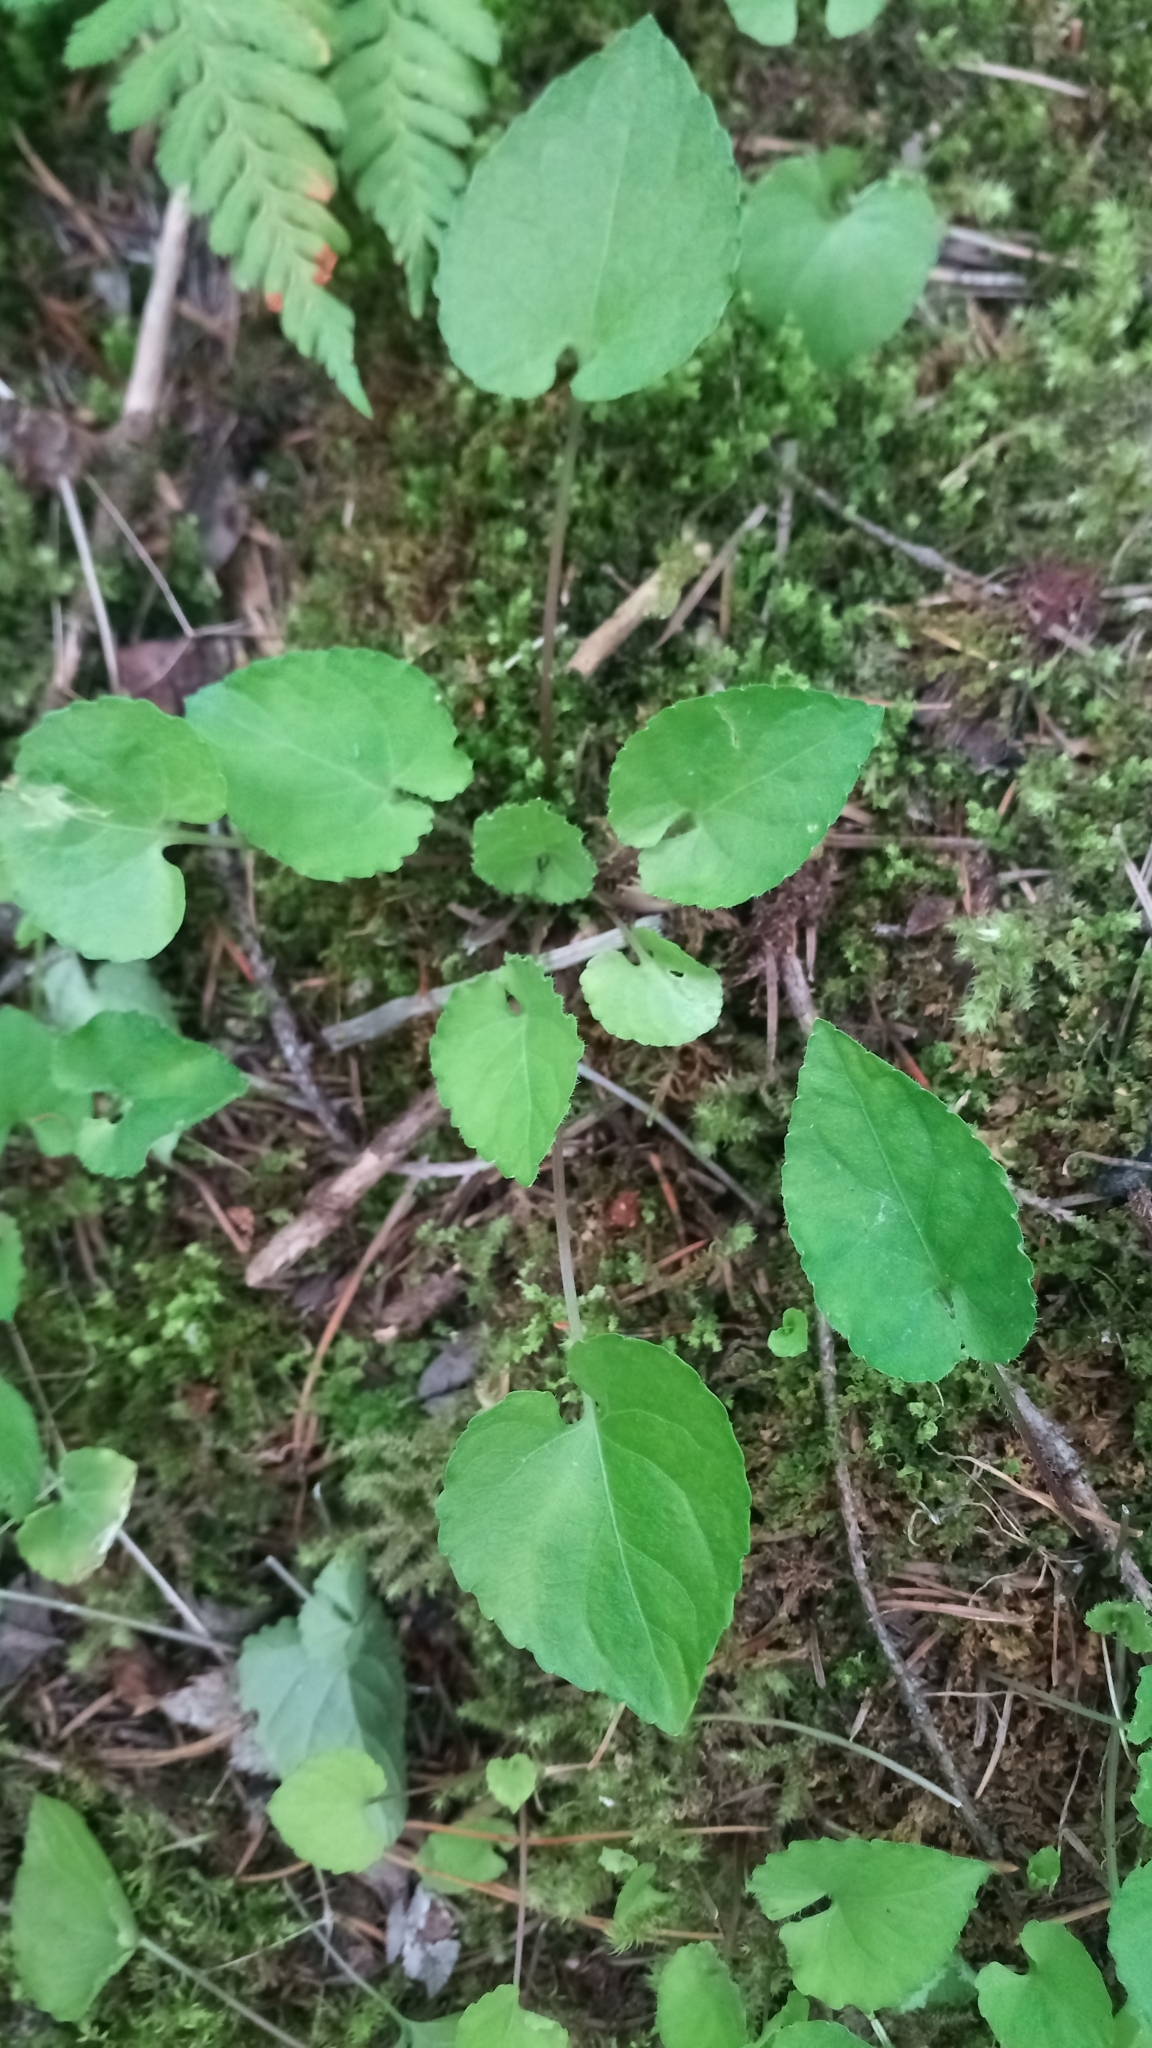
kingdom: Plantae
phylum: Tracheophyta
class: Magnoliopsida
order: Malpighiales
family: Violaceae
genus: Viola
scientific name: Viola selkirkii
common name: Selkirk's violet
